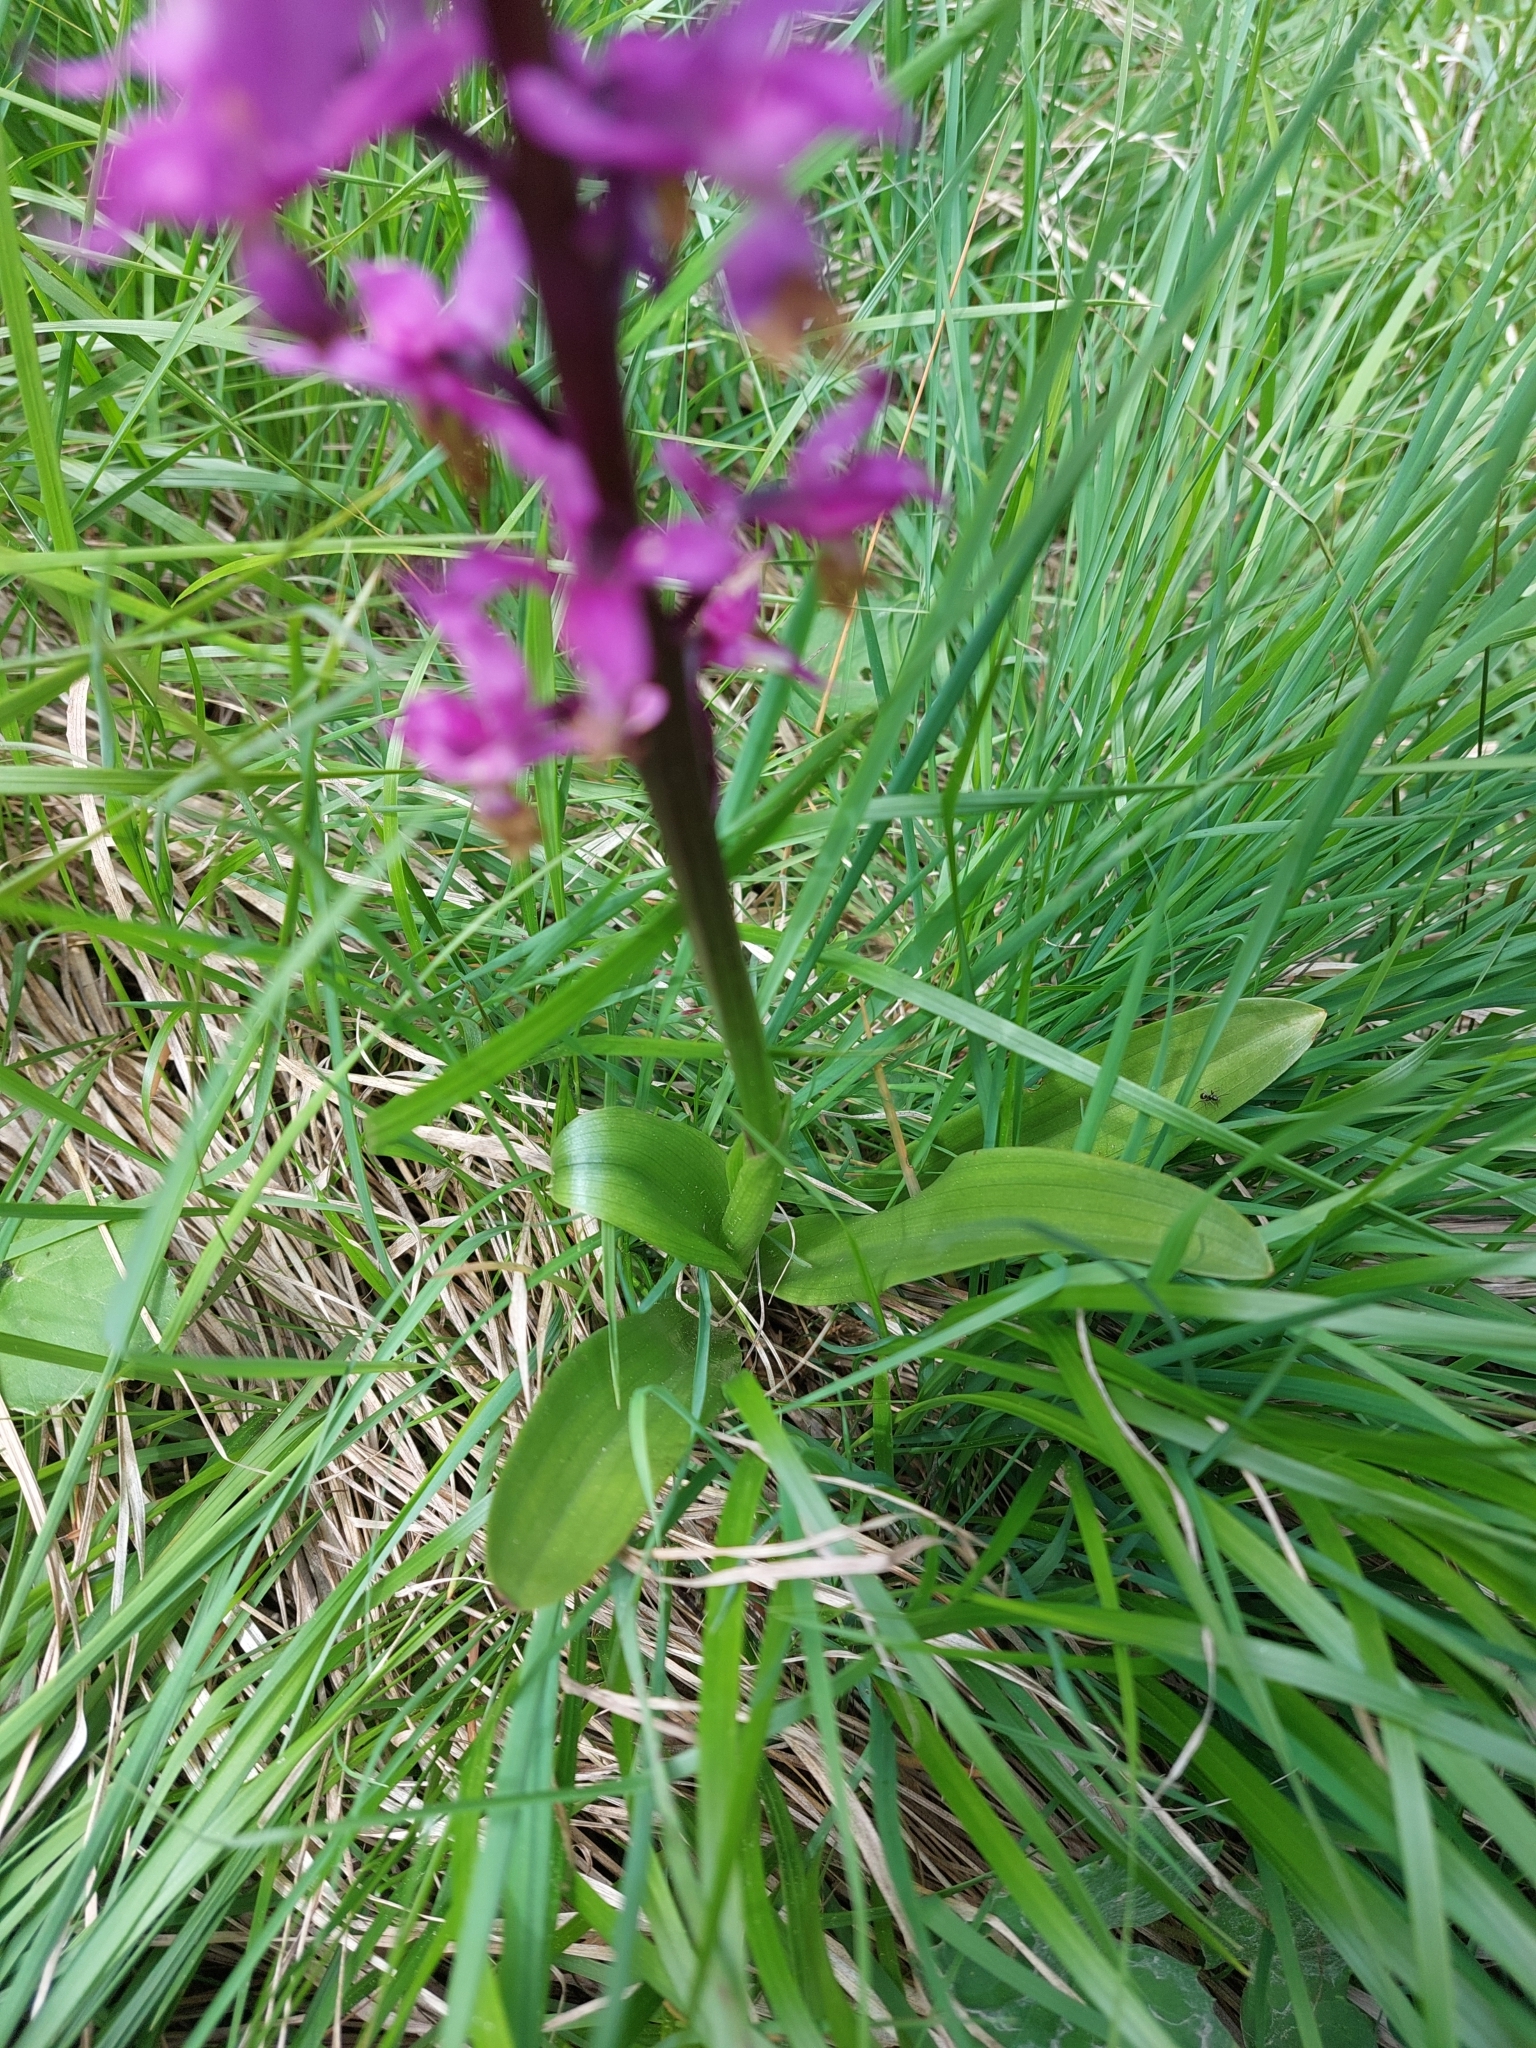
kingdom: Plantae
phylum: Tracheophyta
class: Liliopsida
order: Asparagales
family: Orchidaceae
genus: Orchis
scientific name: Orchis mascula
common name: Early-purple orchid
